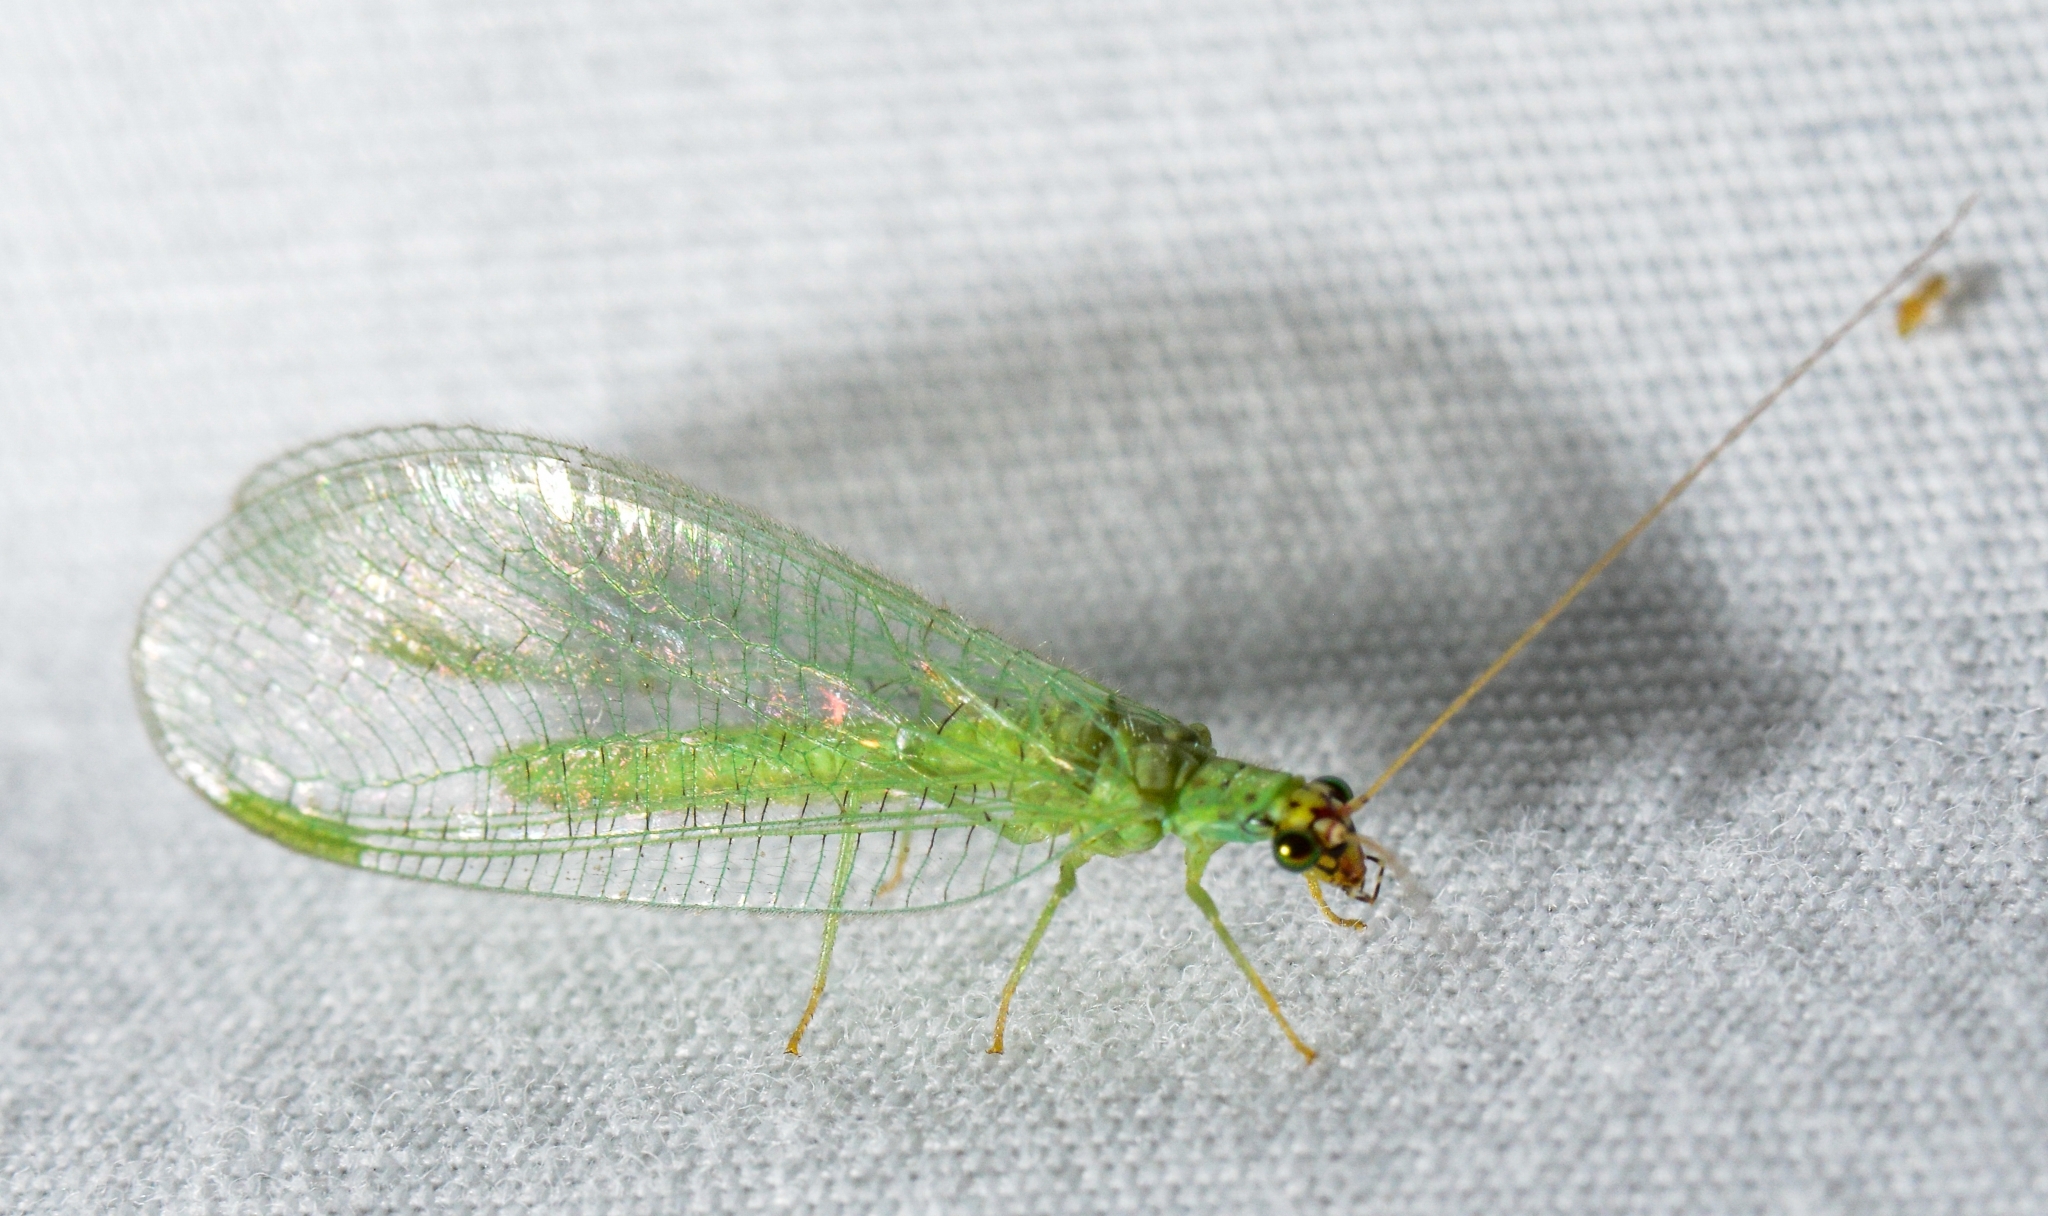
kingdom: Animalia
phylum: Arthropoda
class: Insecta
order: Neuroptera
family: Chrysopidae
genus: Chrysopa
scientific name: Chrysopa oculata
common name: Golden-eyed lacewing
